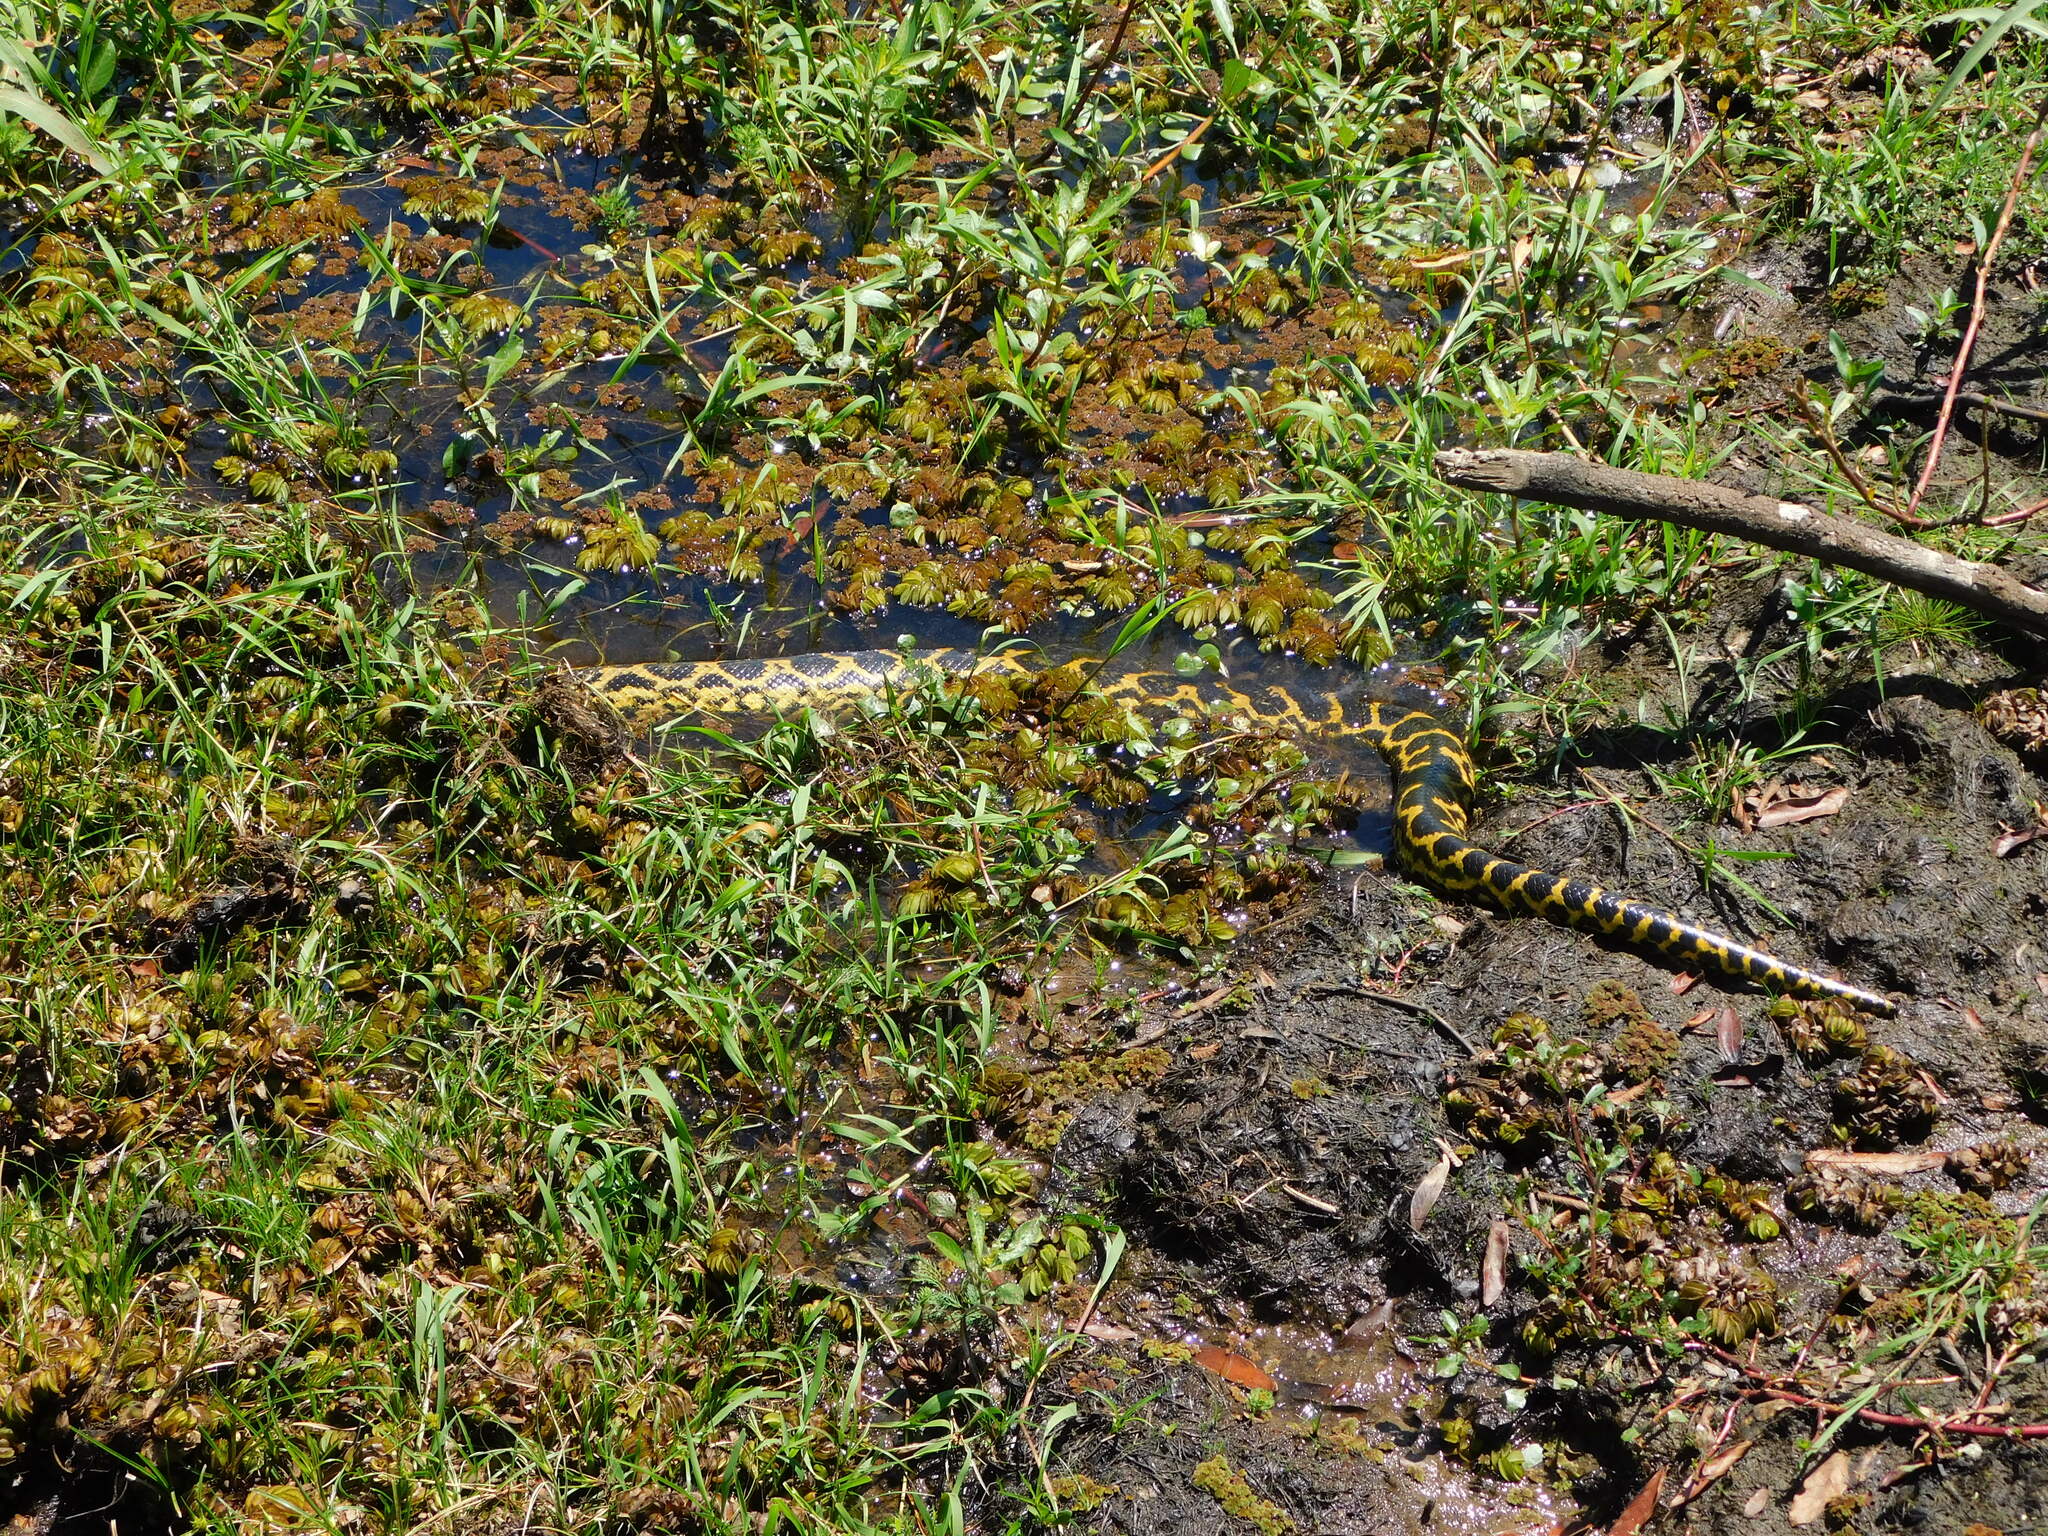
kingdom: Animalia
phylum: Chordata
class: Squamata
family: Boidae
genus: Eunectes
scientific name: Eunectes notaeus
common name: Yellow anaconda
